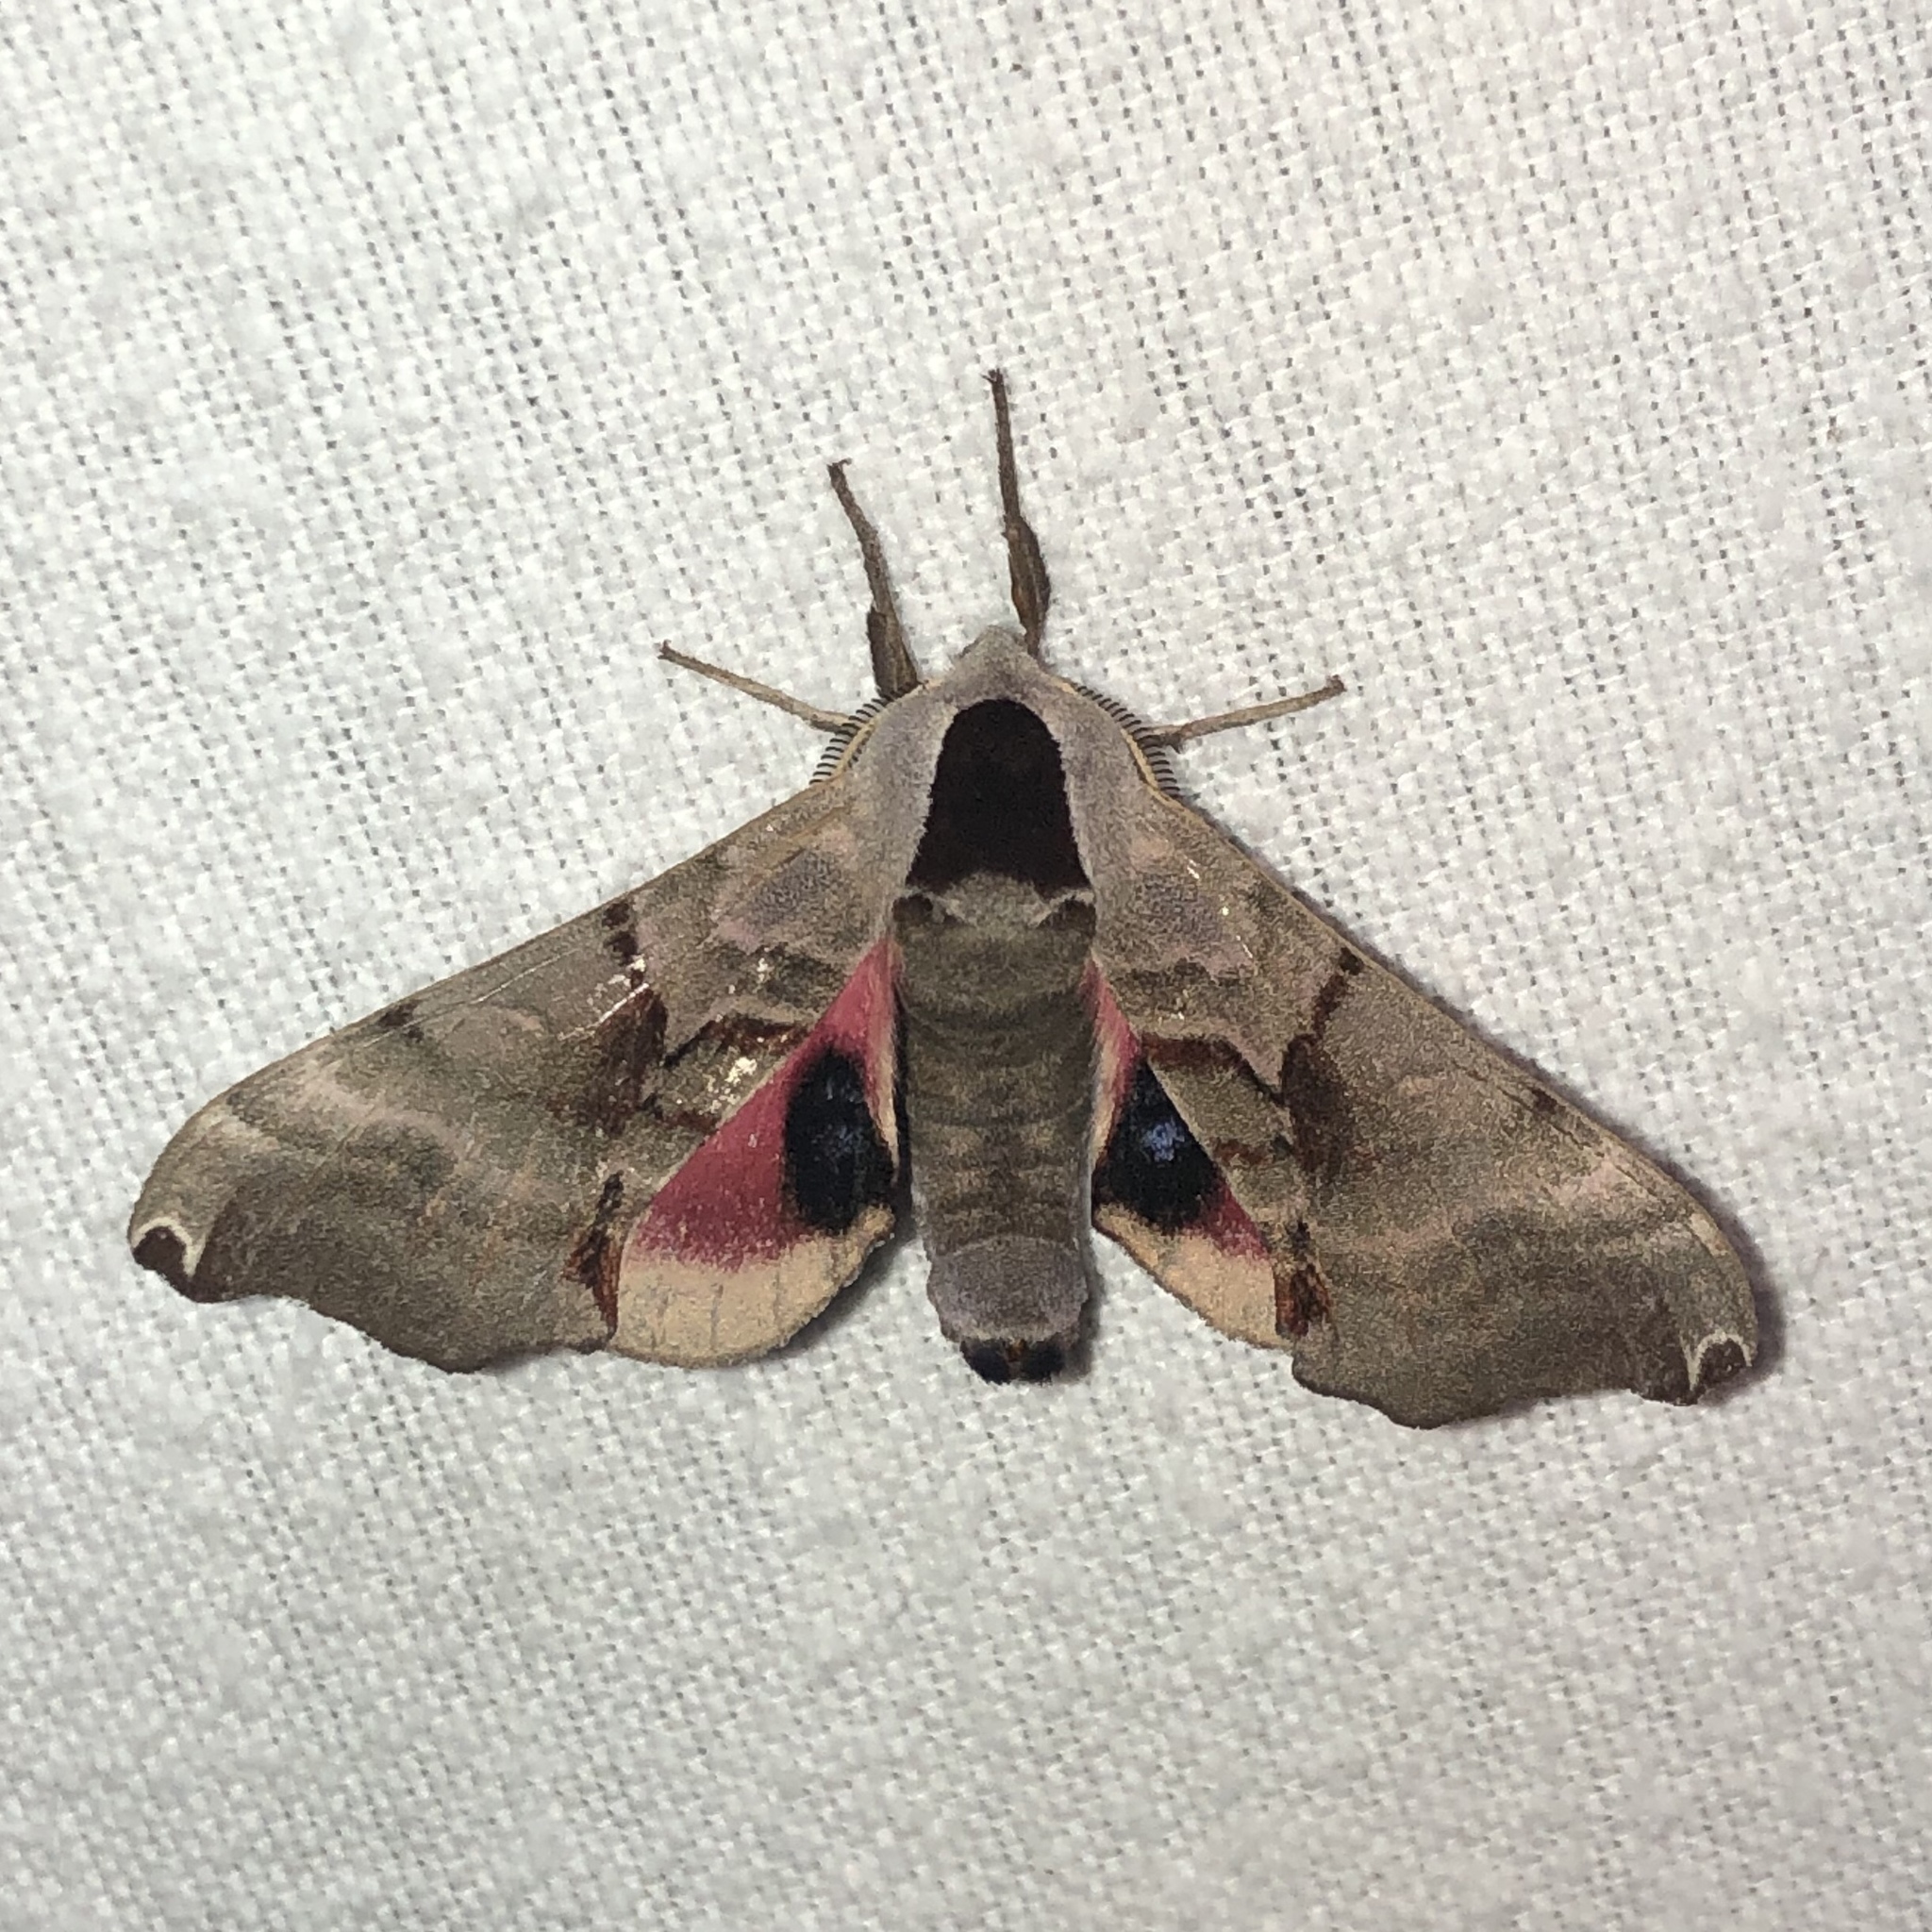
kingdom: Animalia
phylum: Arthropoda
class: Insecta
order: Lepidoptera
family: Sphingidae
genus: Smerinthus
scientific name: Smerinthus jamaicensis
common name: Twin spotted sphinx
